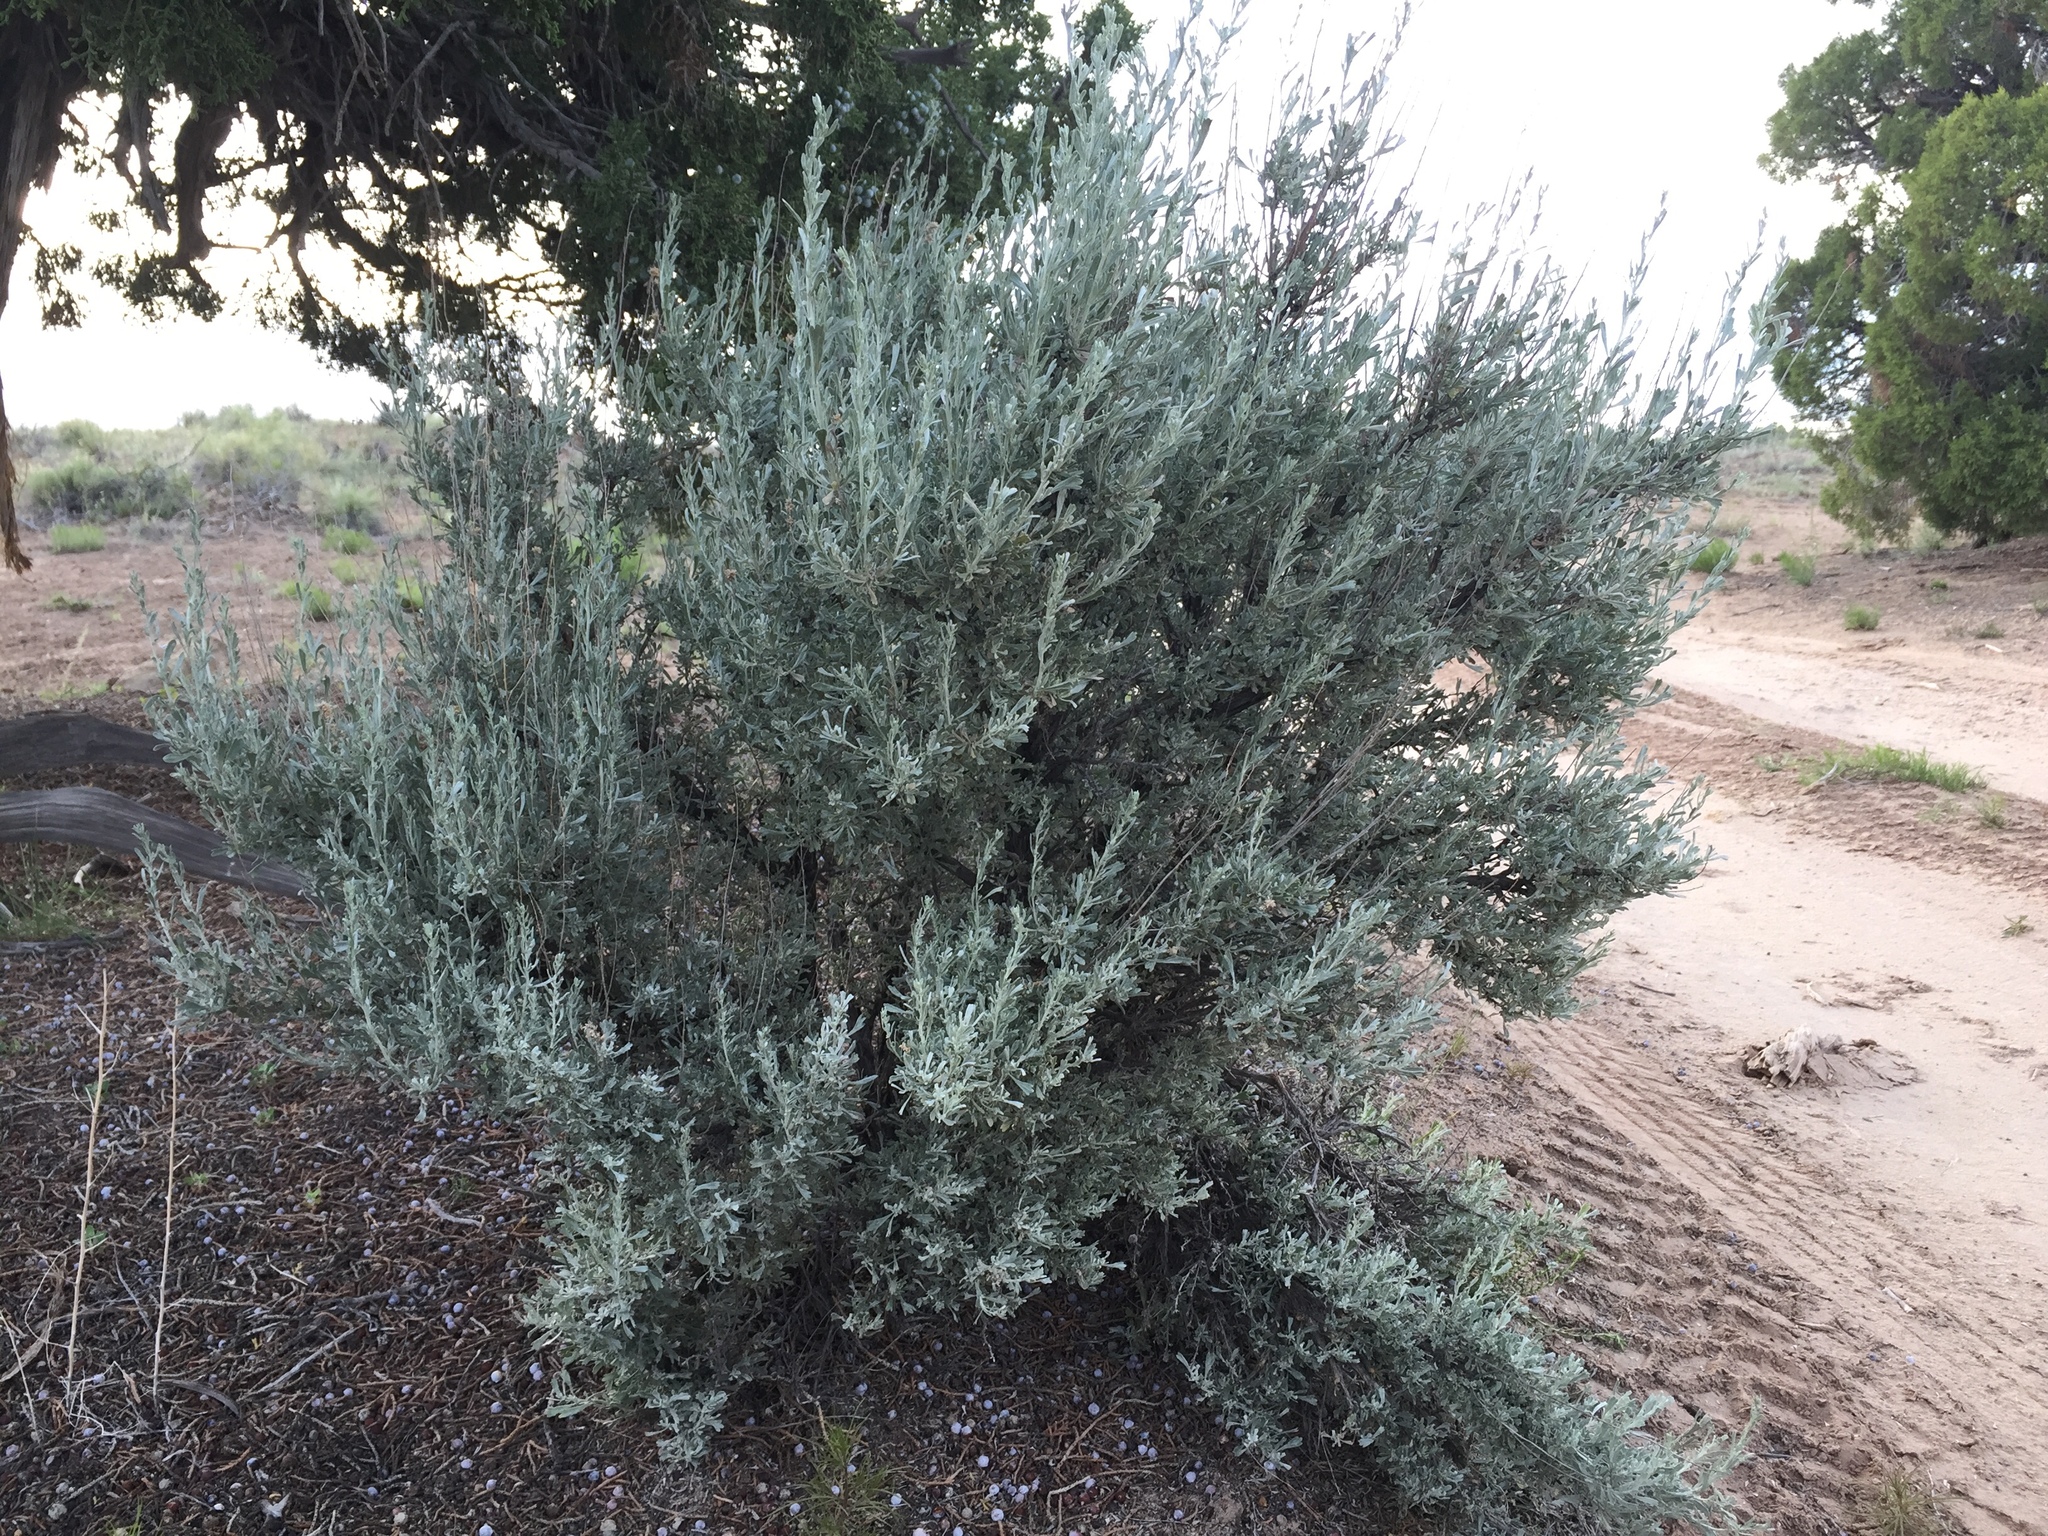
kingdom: Plantae
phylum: Tracheophyta
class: Magnoliopsida
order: Asterales
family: Asteraceae
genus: Artemisia
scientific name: Artemisia tridentata
